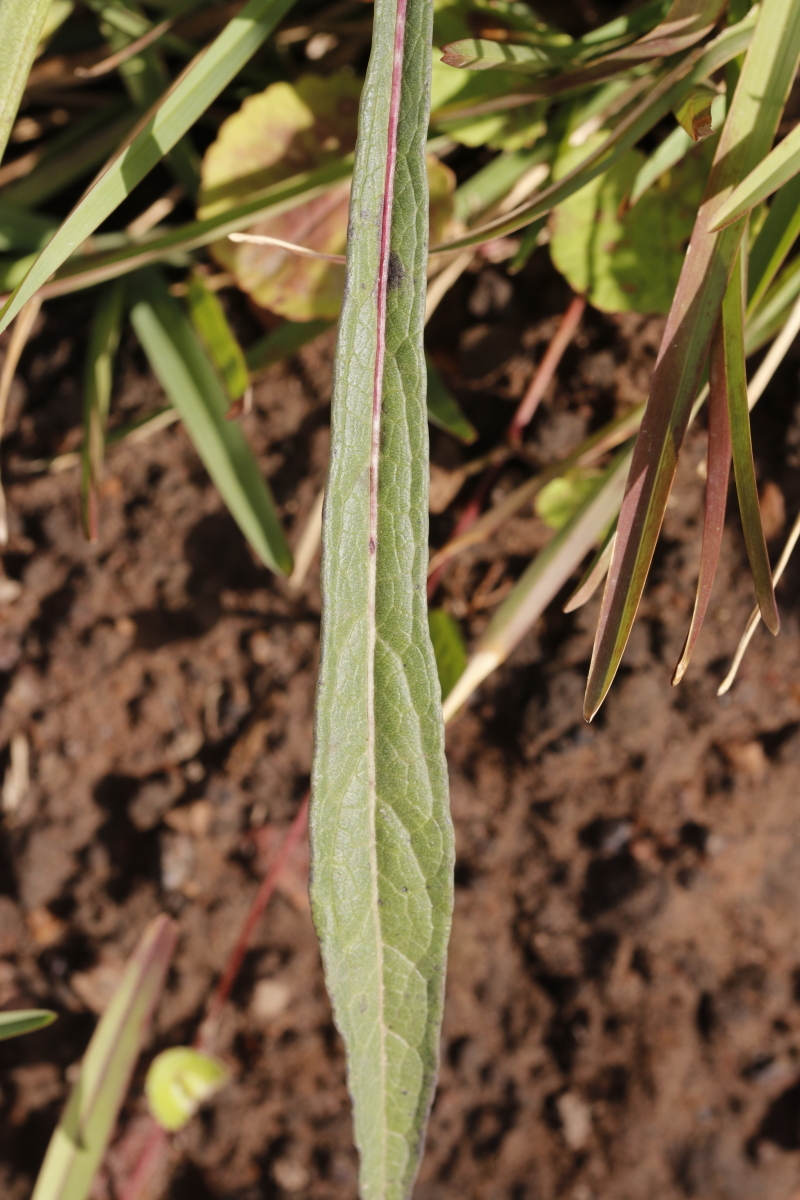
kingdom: Plantae
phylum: Tracheophyta
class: Magnoliopsida
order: Dipsacales
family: Caprifoliaceae
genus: Cephalaria
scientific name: Cephalaria humilis
